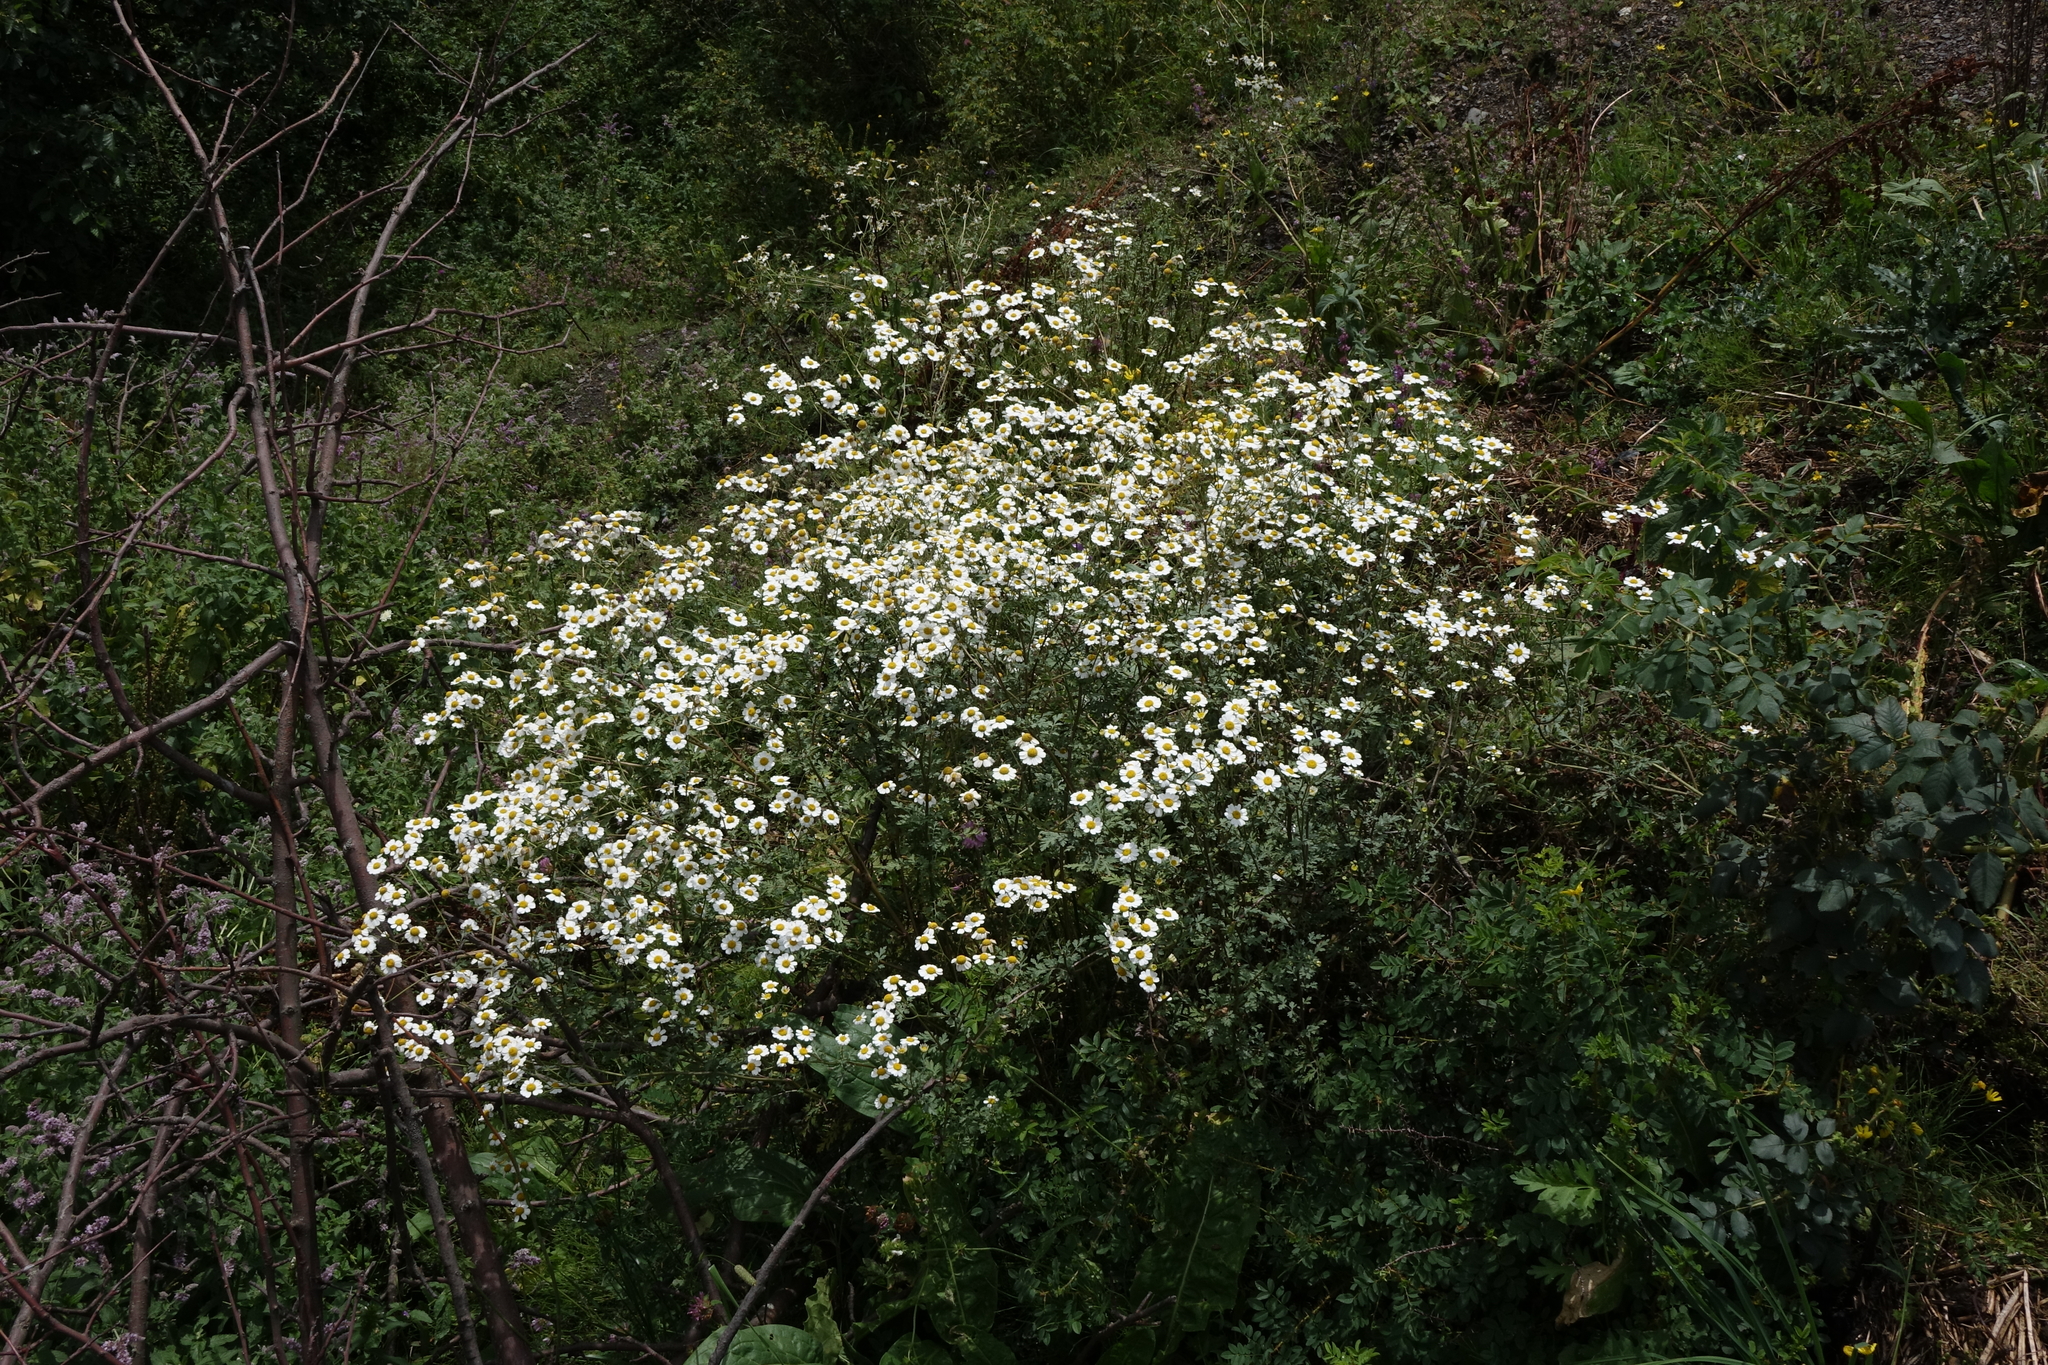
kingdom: Plantae
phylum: Tracheophyta
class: Magnoliopsida
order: Asterales
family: Asteraceae
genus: Tanacetum
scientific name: Tanacetum partheniifolium
